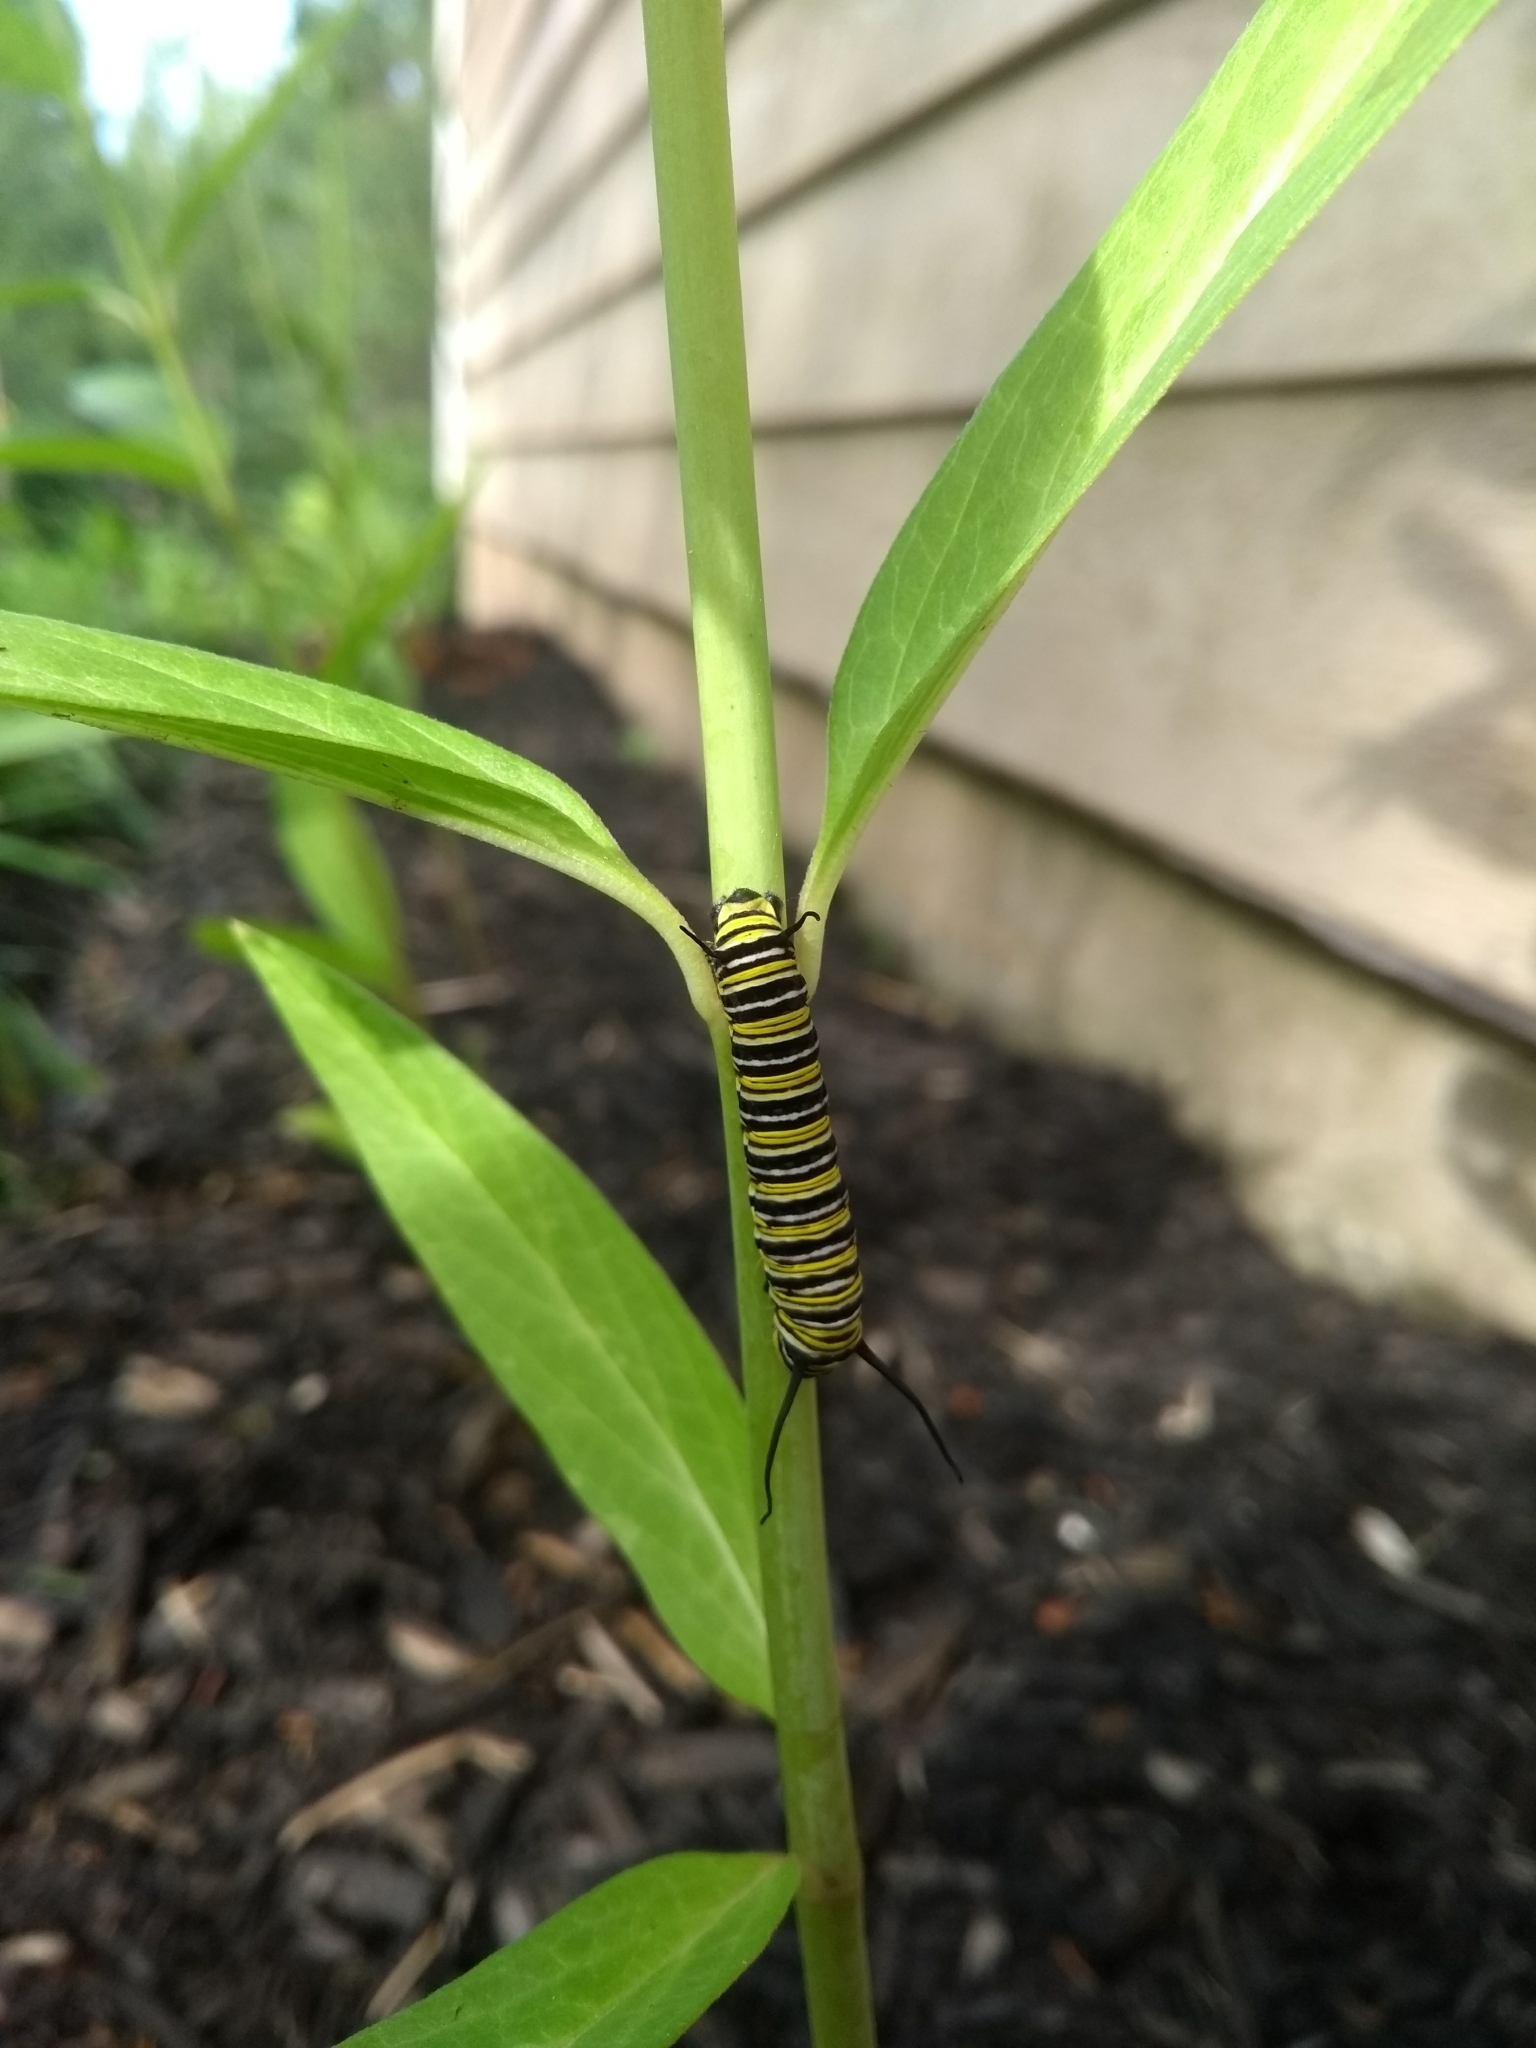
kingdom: Animalia
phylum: Arthropoda
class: Insecta
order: Lepidoptera
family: Nymphalidae
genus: Danaus
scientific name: Danaus plexippus
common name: Monarch
